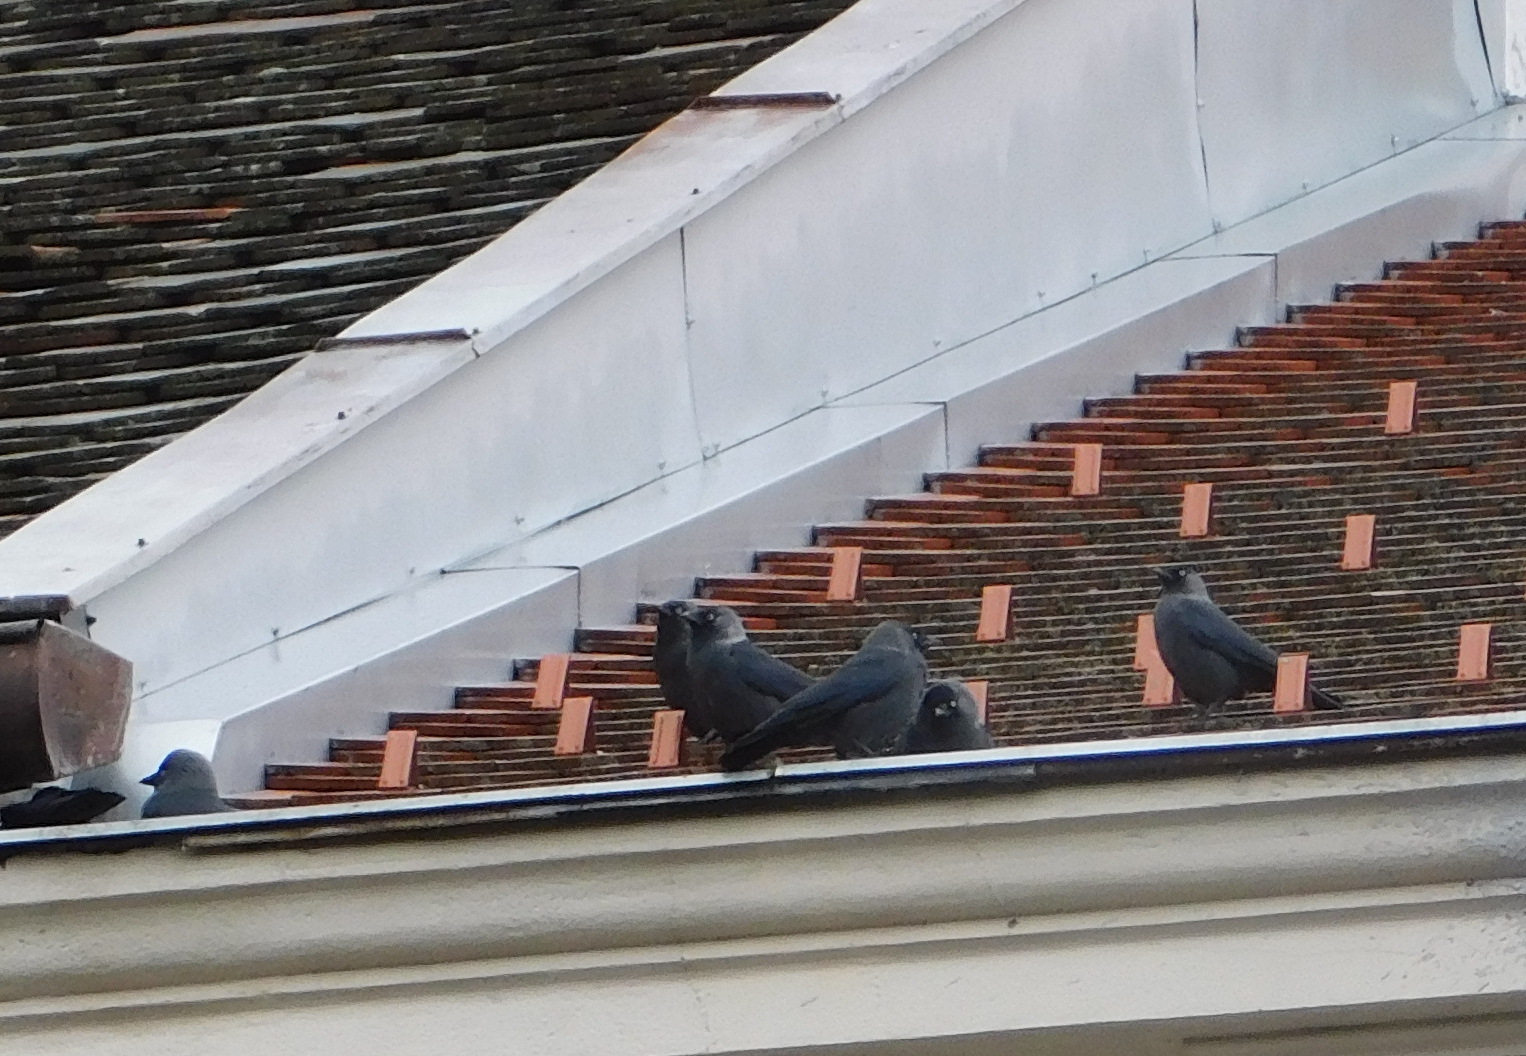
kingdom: Animalia
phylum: Chordata
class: Aves
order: Passeriformes
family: Corvidae
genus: Coloeus
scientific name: Coloeus monedula
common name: Western jackdaw
